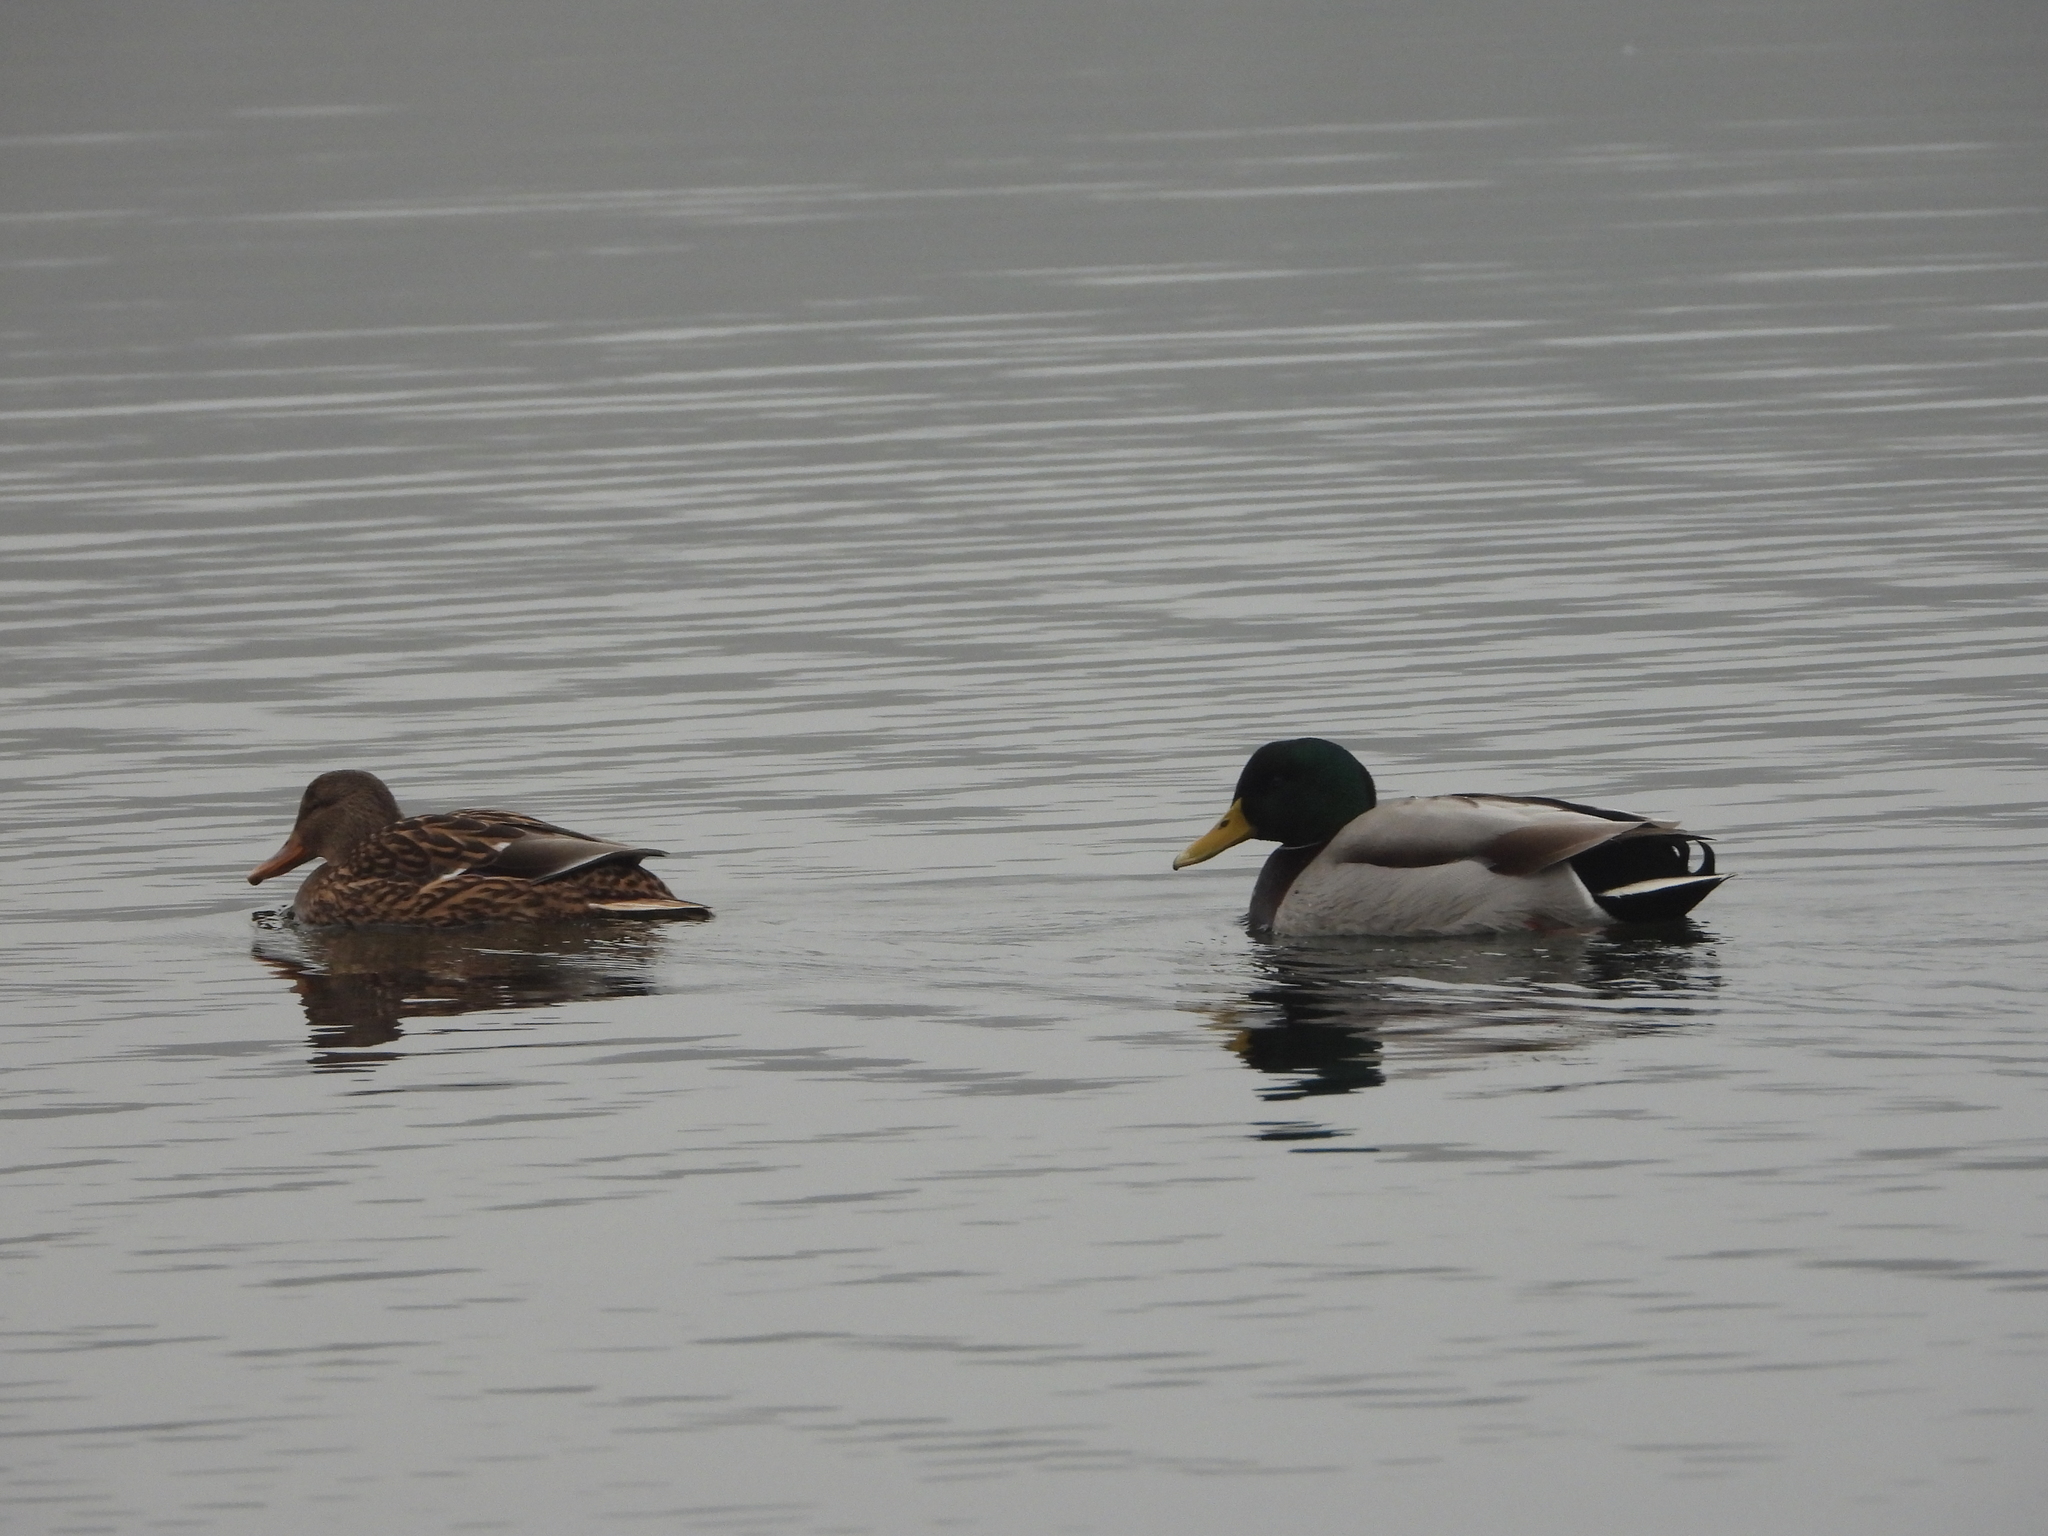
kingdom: Animalia
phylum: Chordata
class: Aves
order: Anseriformes
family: Anatidae
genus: Anas
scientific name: Anas platyrhynchos
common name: Mallard
